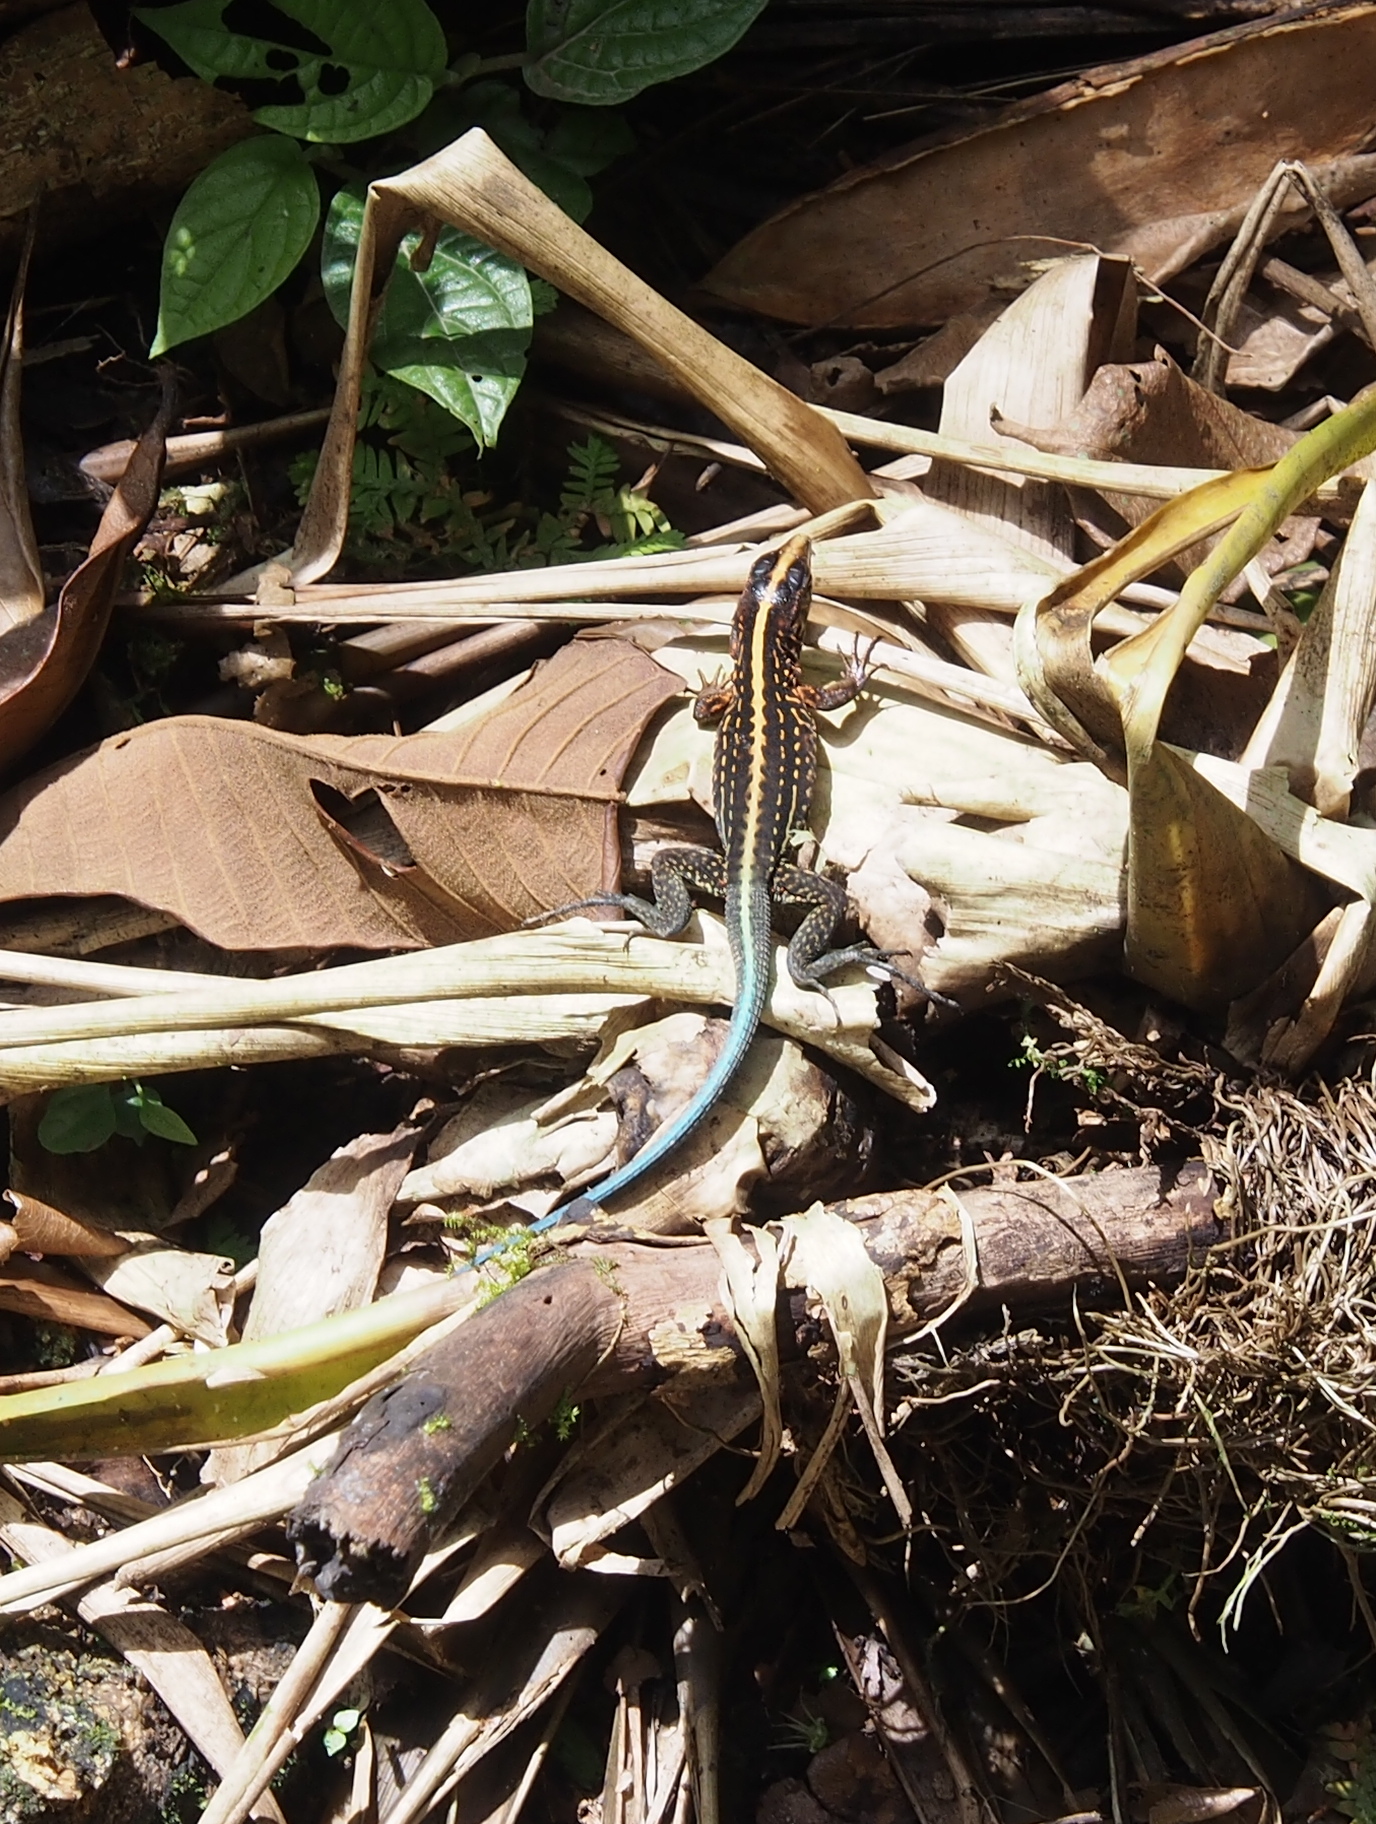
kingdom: Animalia
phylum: Chordata
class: Squamata
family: Teiidae
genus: Holcosus
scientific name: Holcosus festivus
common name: Middle american ameiva
